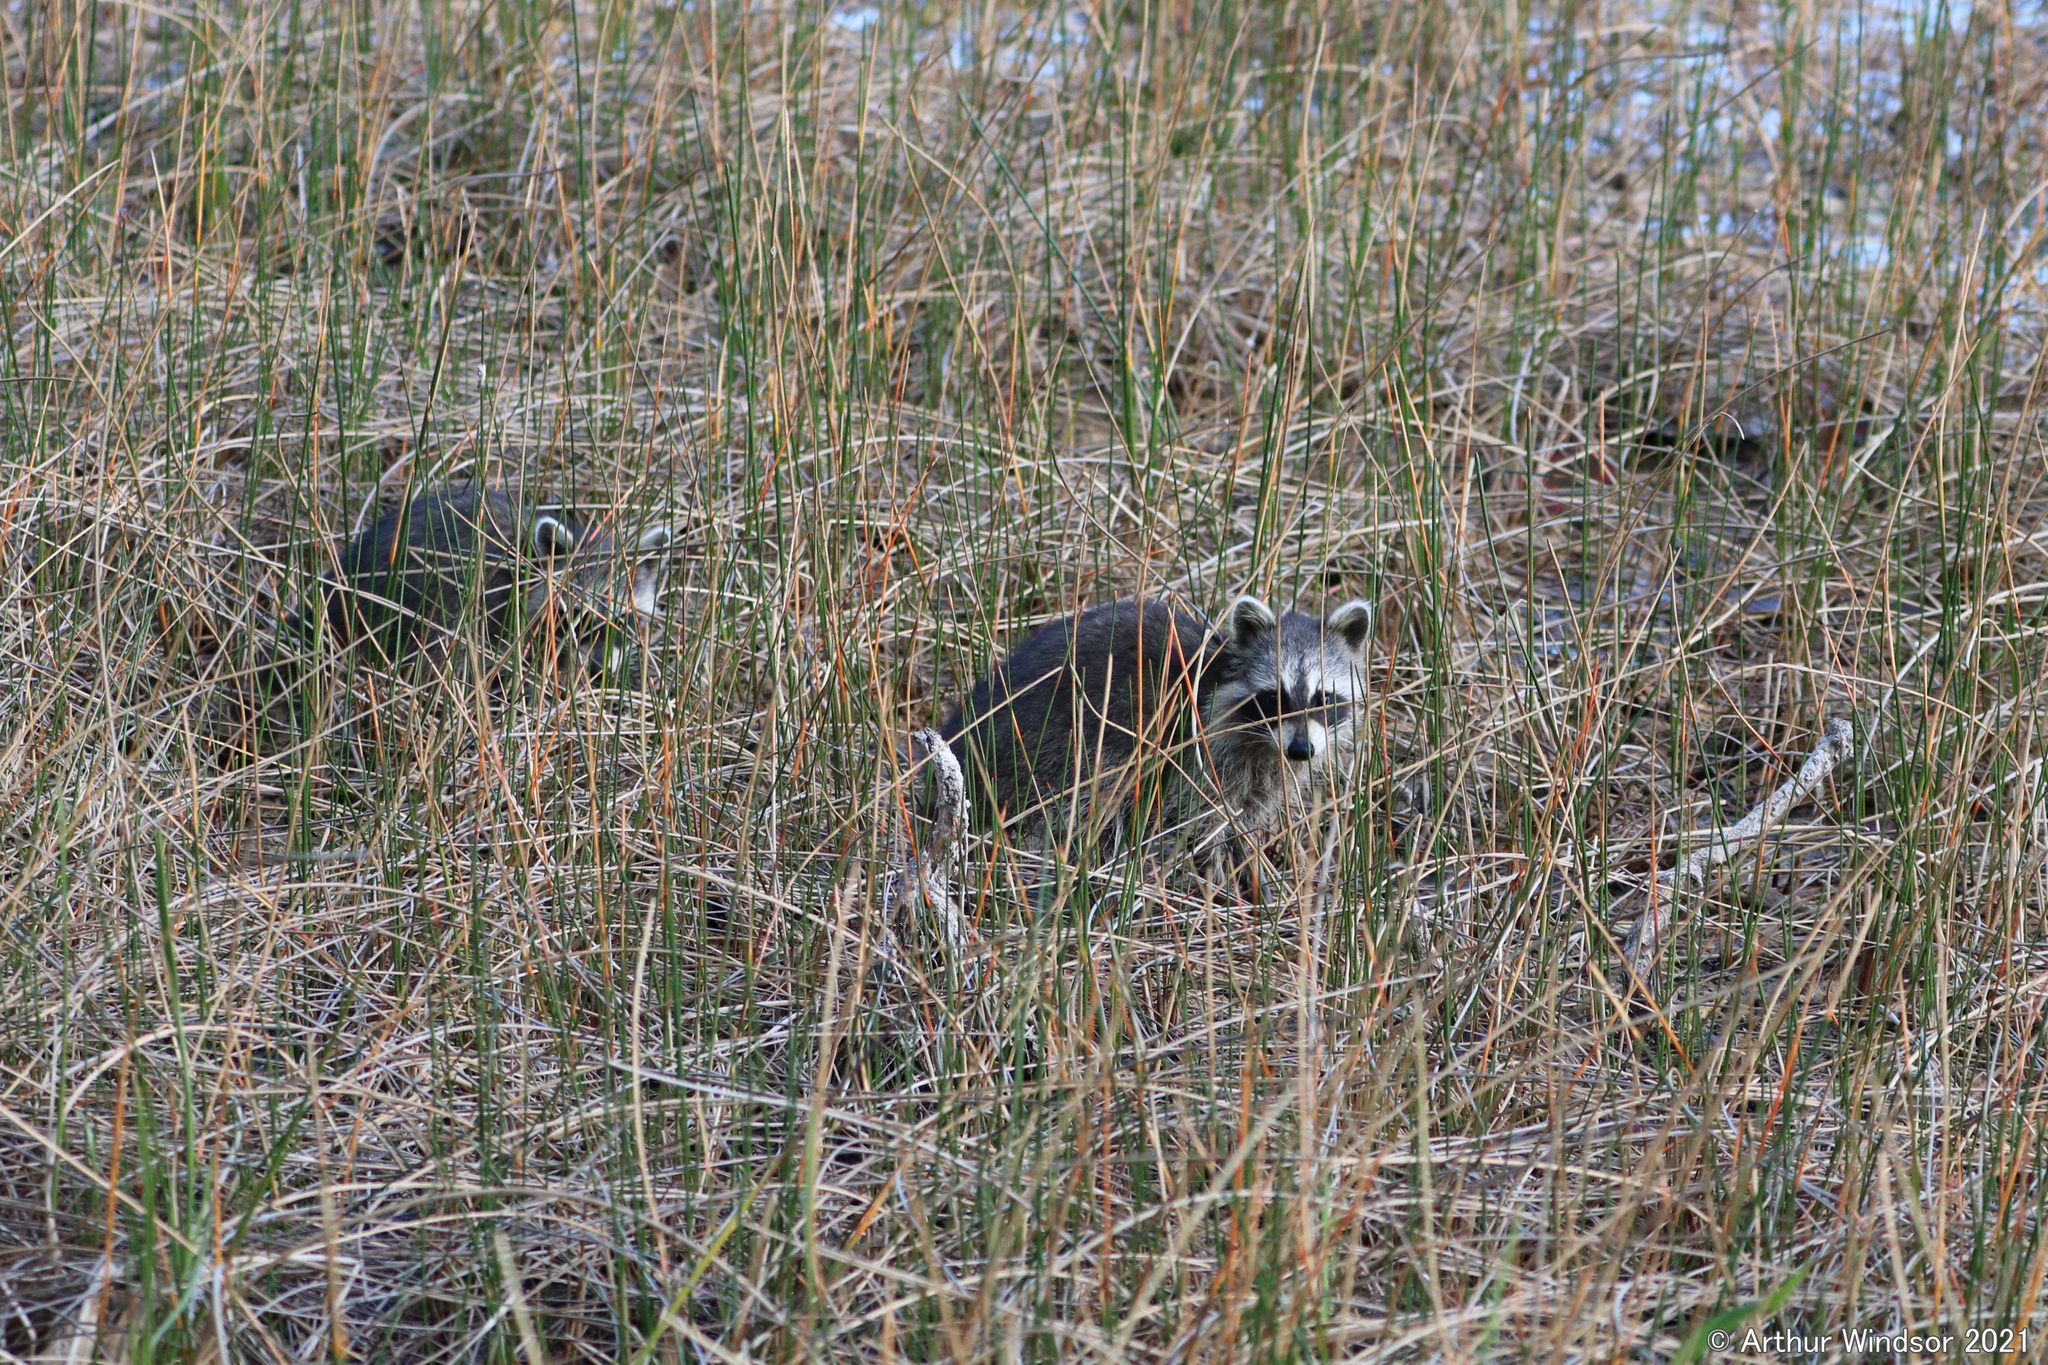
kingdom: Animalia
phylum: Chordata
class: Mammalia
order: Carnivora
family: Procyonidae
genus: Procyon
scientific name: Procyon lotor
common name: Raccoon
